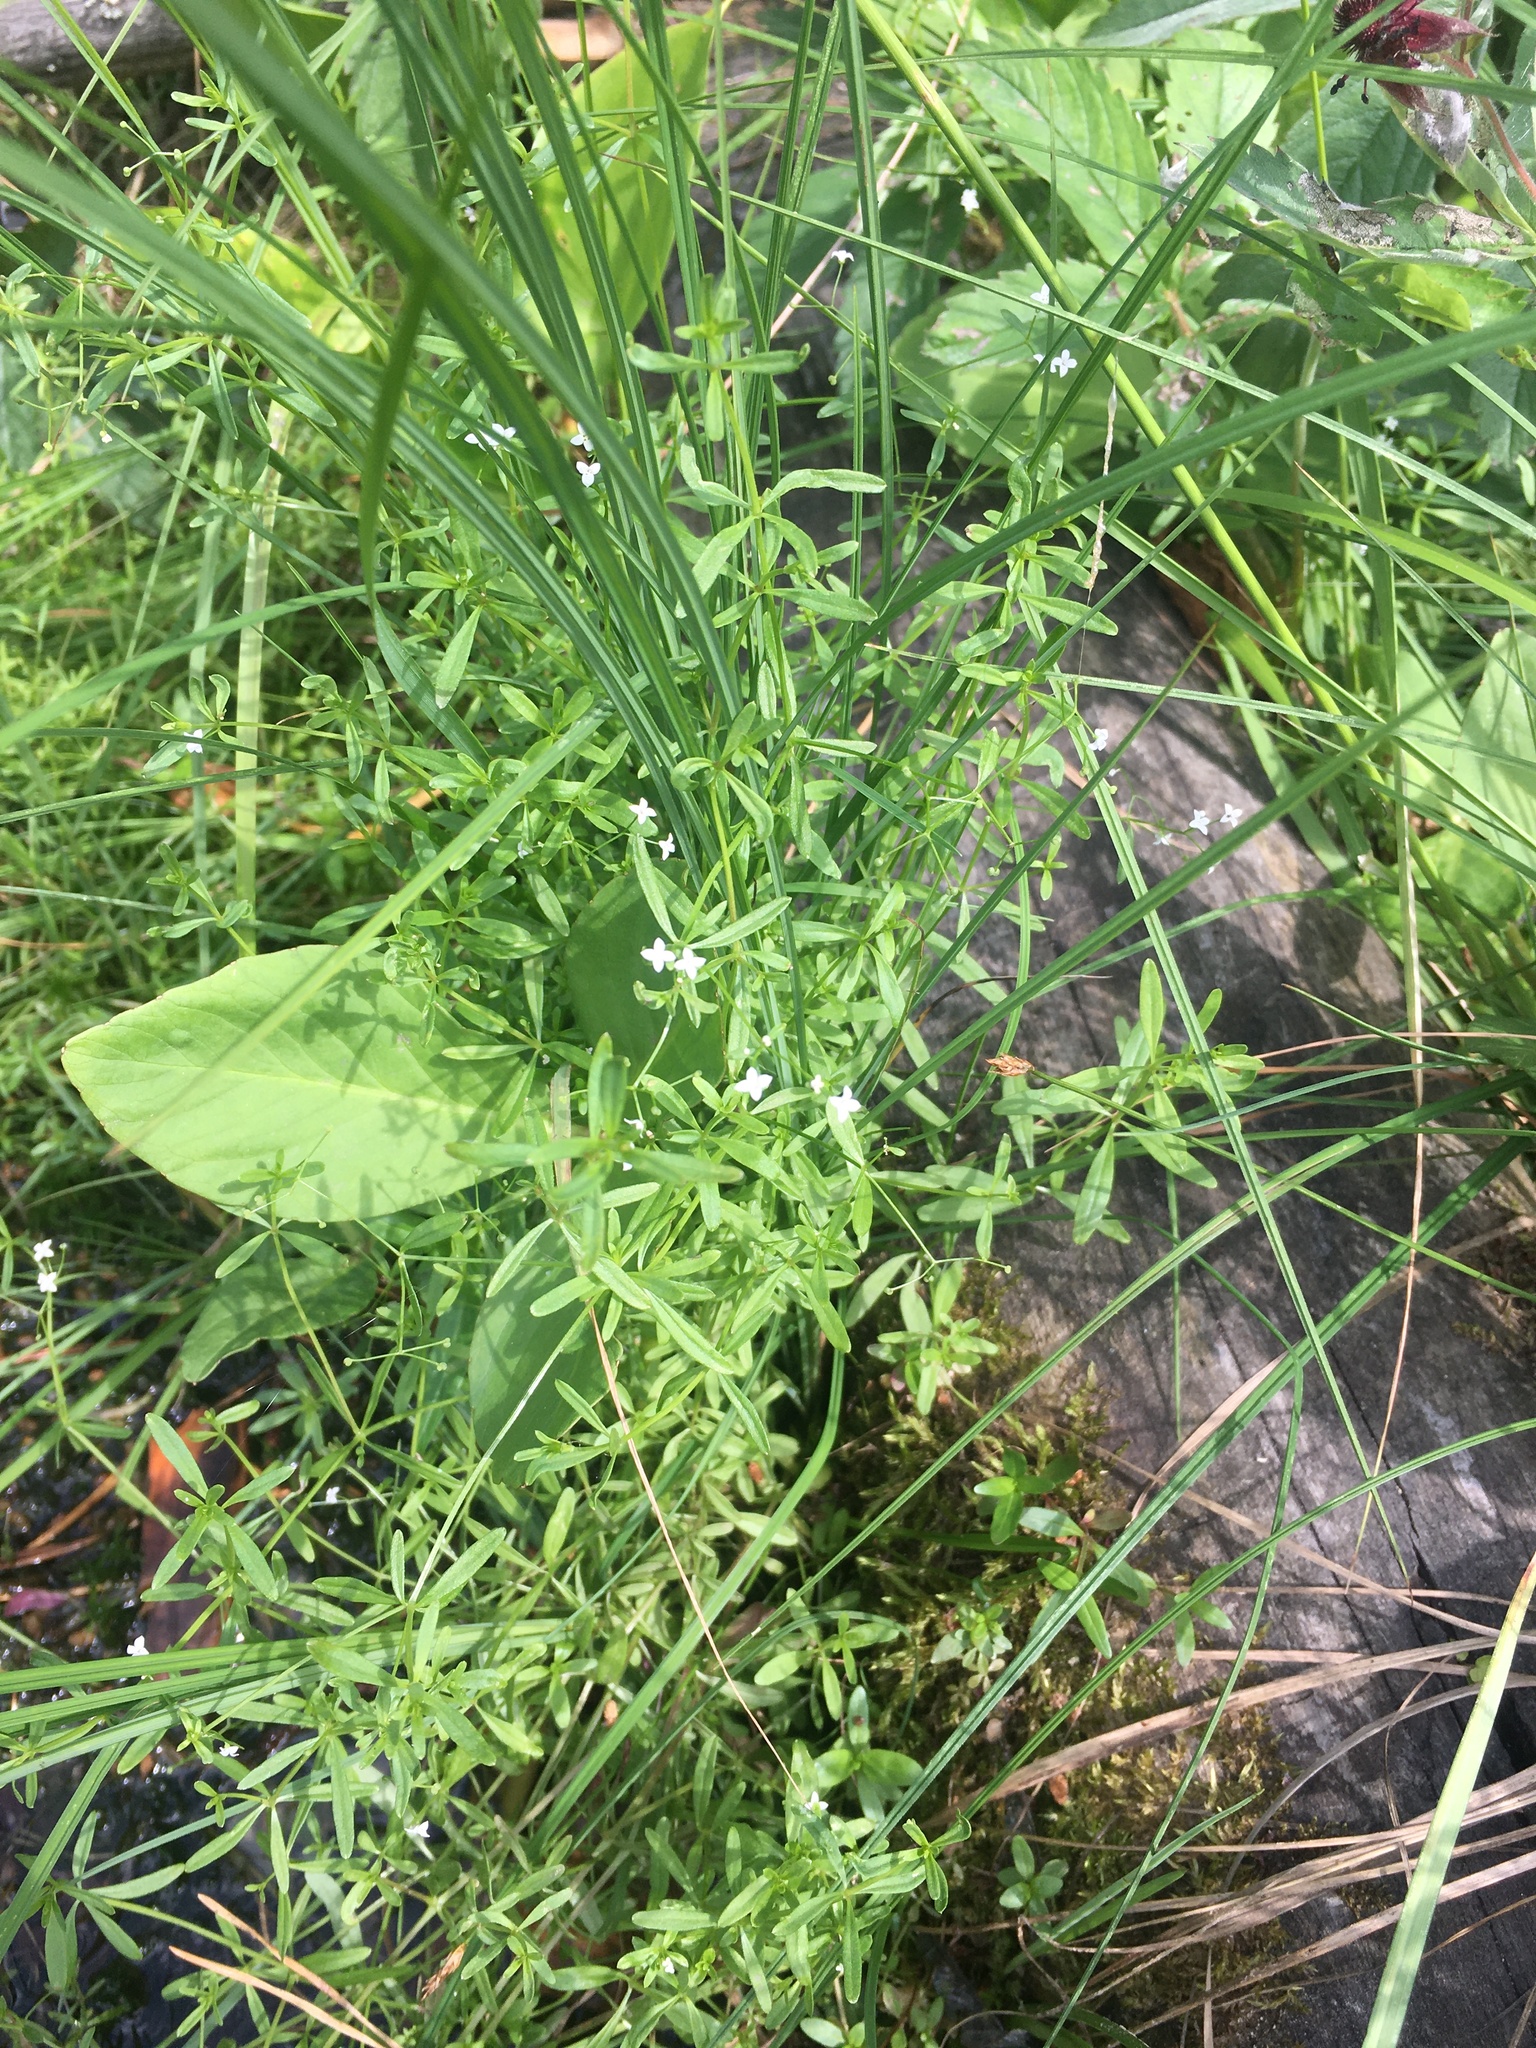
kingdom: Plantae
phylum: Tracheophyta
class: Magnoliopsida
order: Gentianales
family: Rubiaceae
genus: Galium
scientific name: Galium palustre
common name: Common marsh-bedstraw
